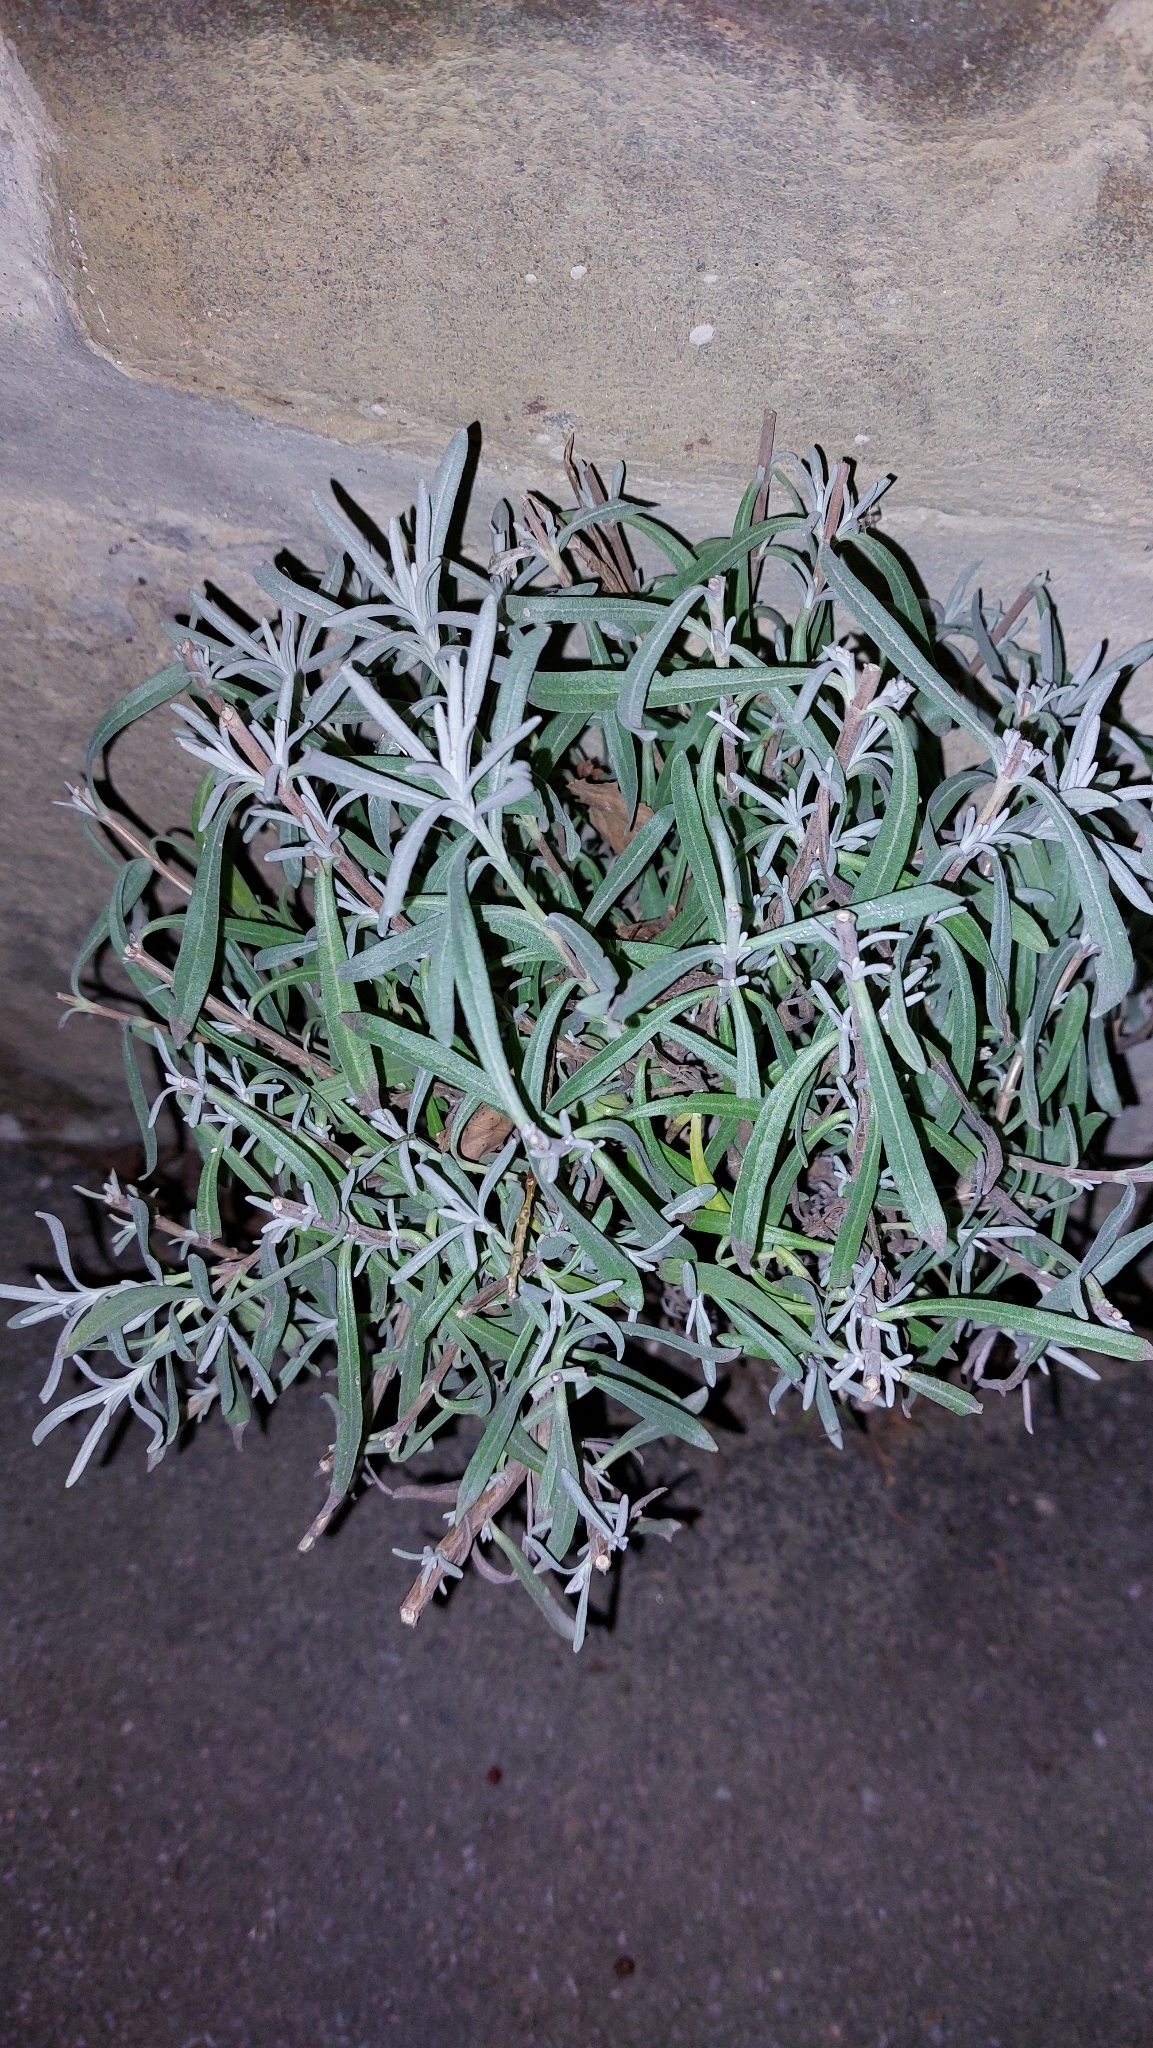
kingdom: Plantae
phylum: Tracheophyta
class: Magnoliopsida
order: Lamiales
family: Lamiaceae
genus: Lavandula
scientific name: Lavandula angustifolia
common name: Garden lavender
